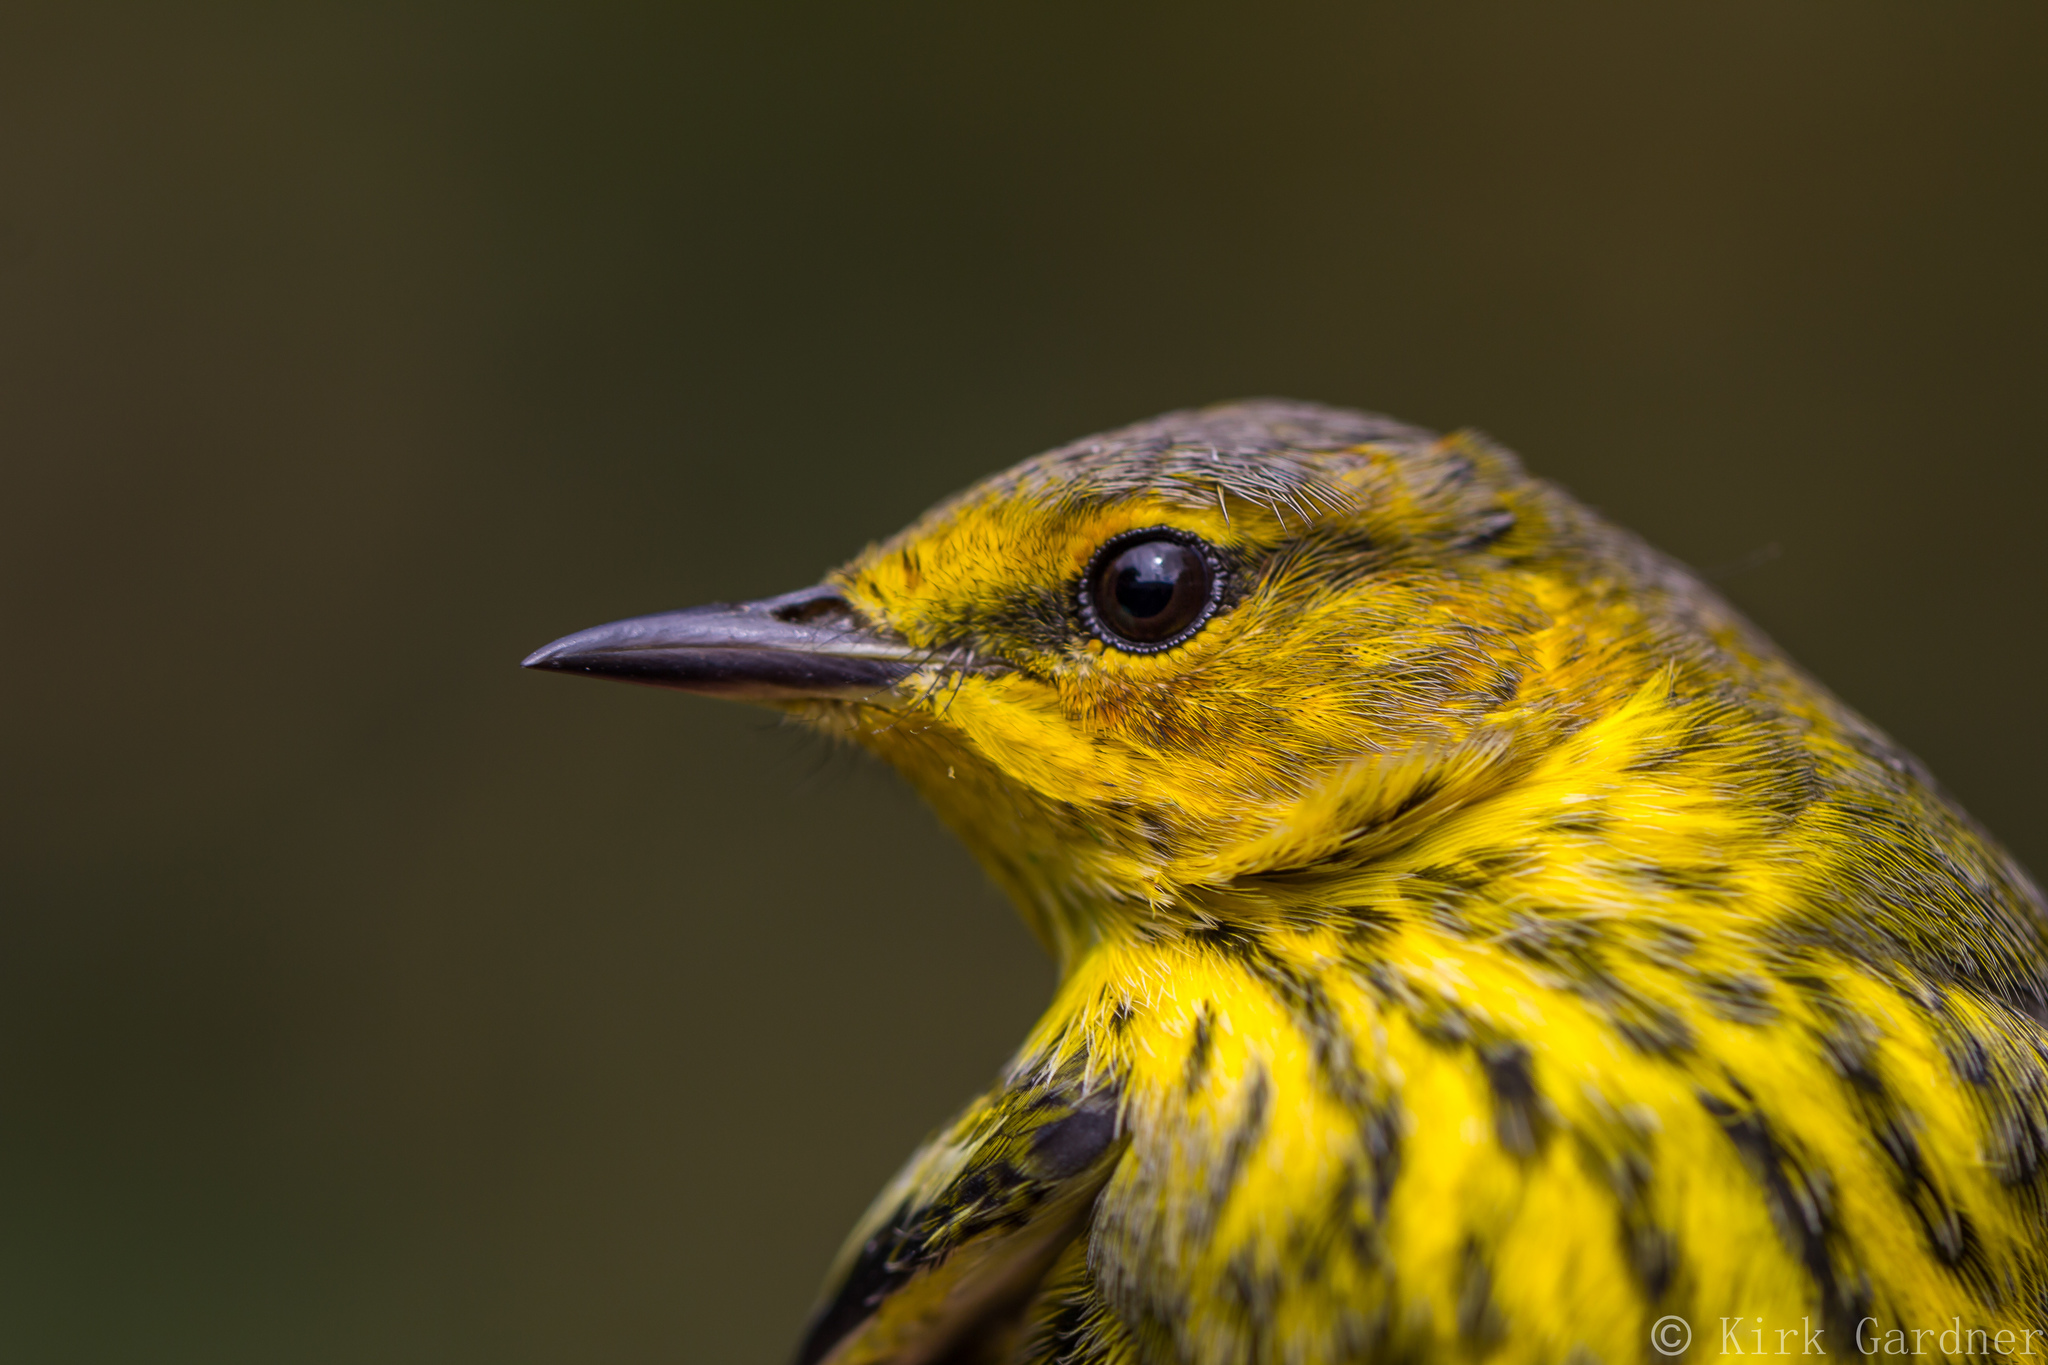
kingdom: Animalia
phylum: Chordata
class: Aves
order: Passeriformes
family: Parulidae
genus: Setophaga
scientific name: Setophaga tigrina
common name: Cape may warbler
